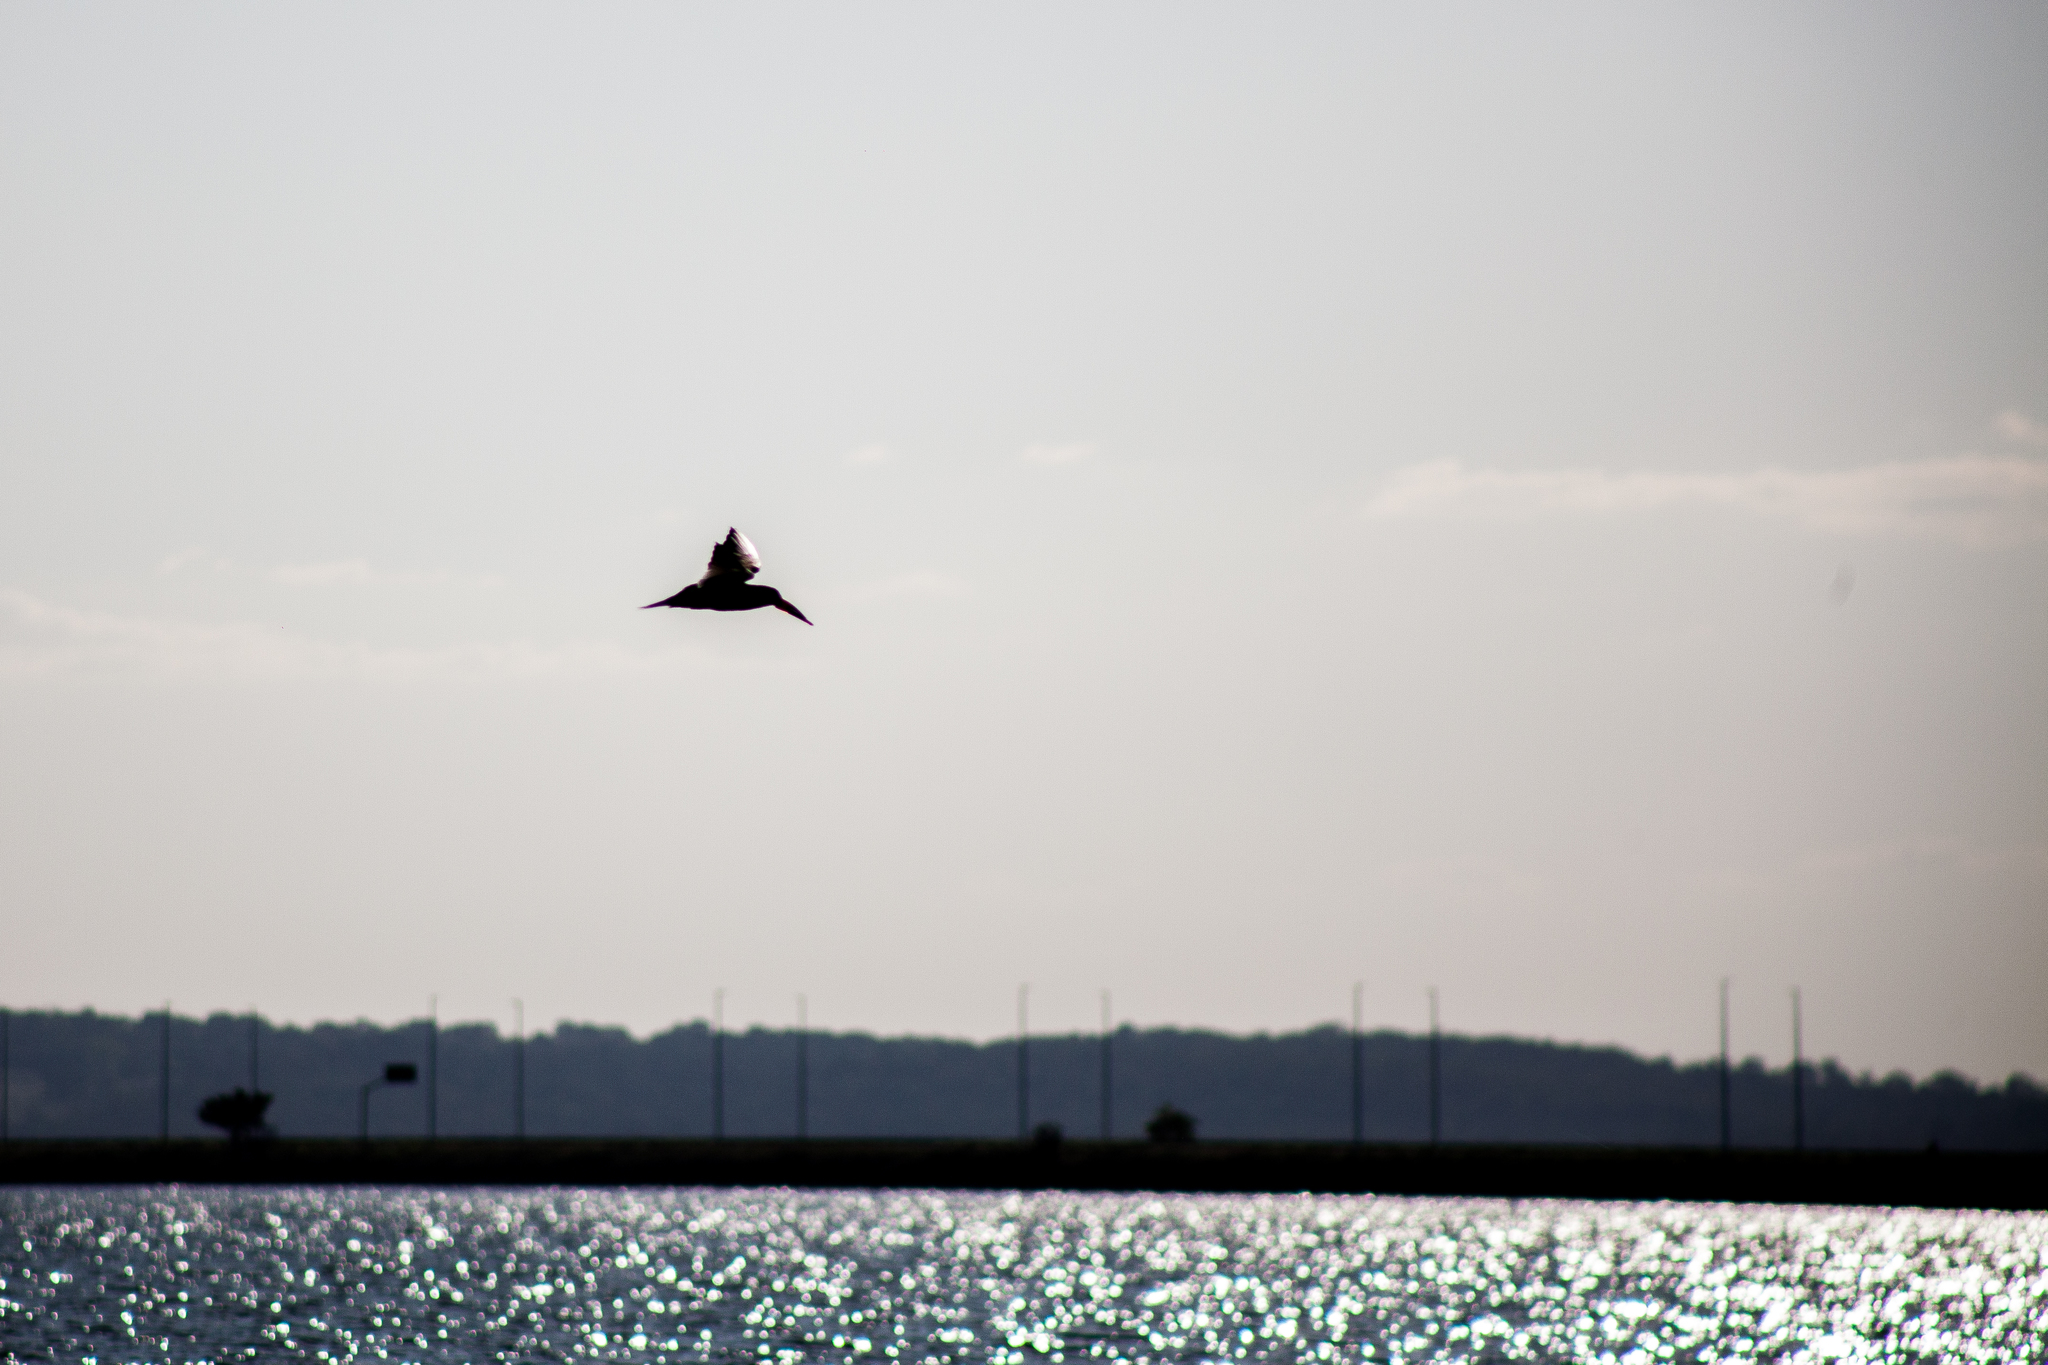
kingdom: Animalia
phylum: Chordata
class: Aves
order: Charadriiformes
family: Laridae
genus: Rynchops
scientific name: Rynchops niger
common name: Black skimmer
